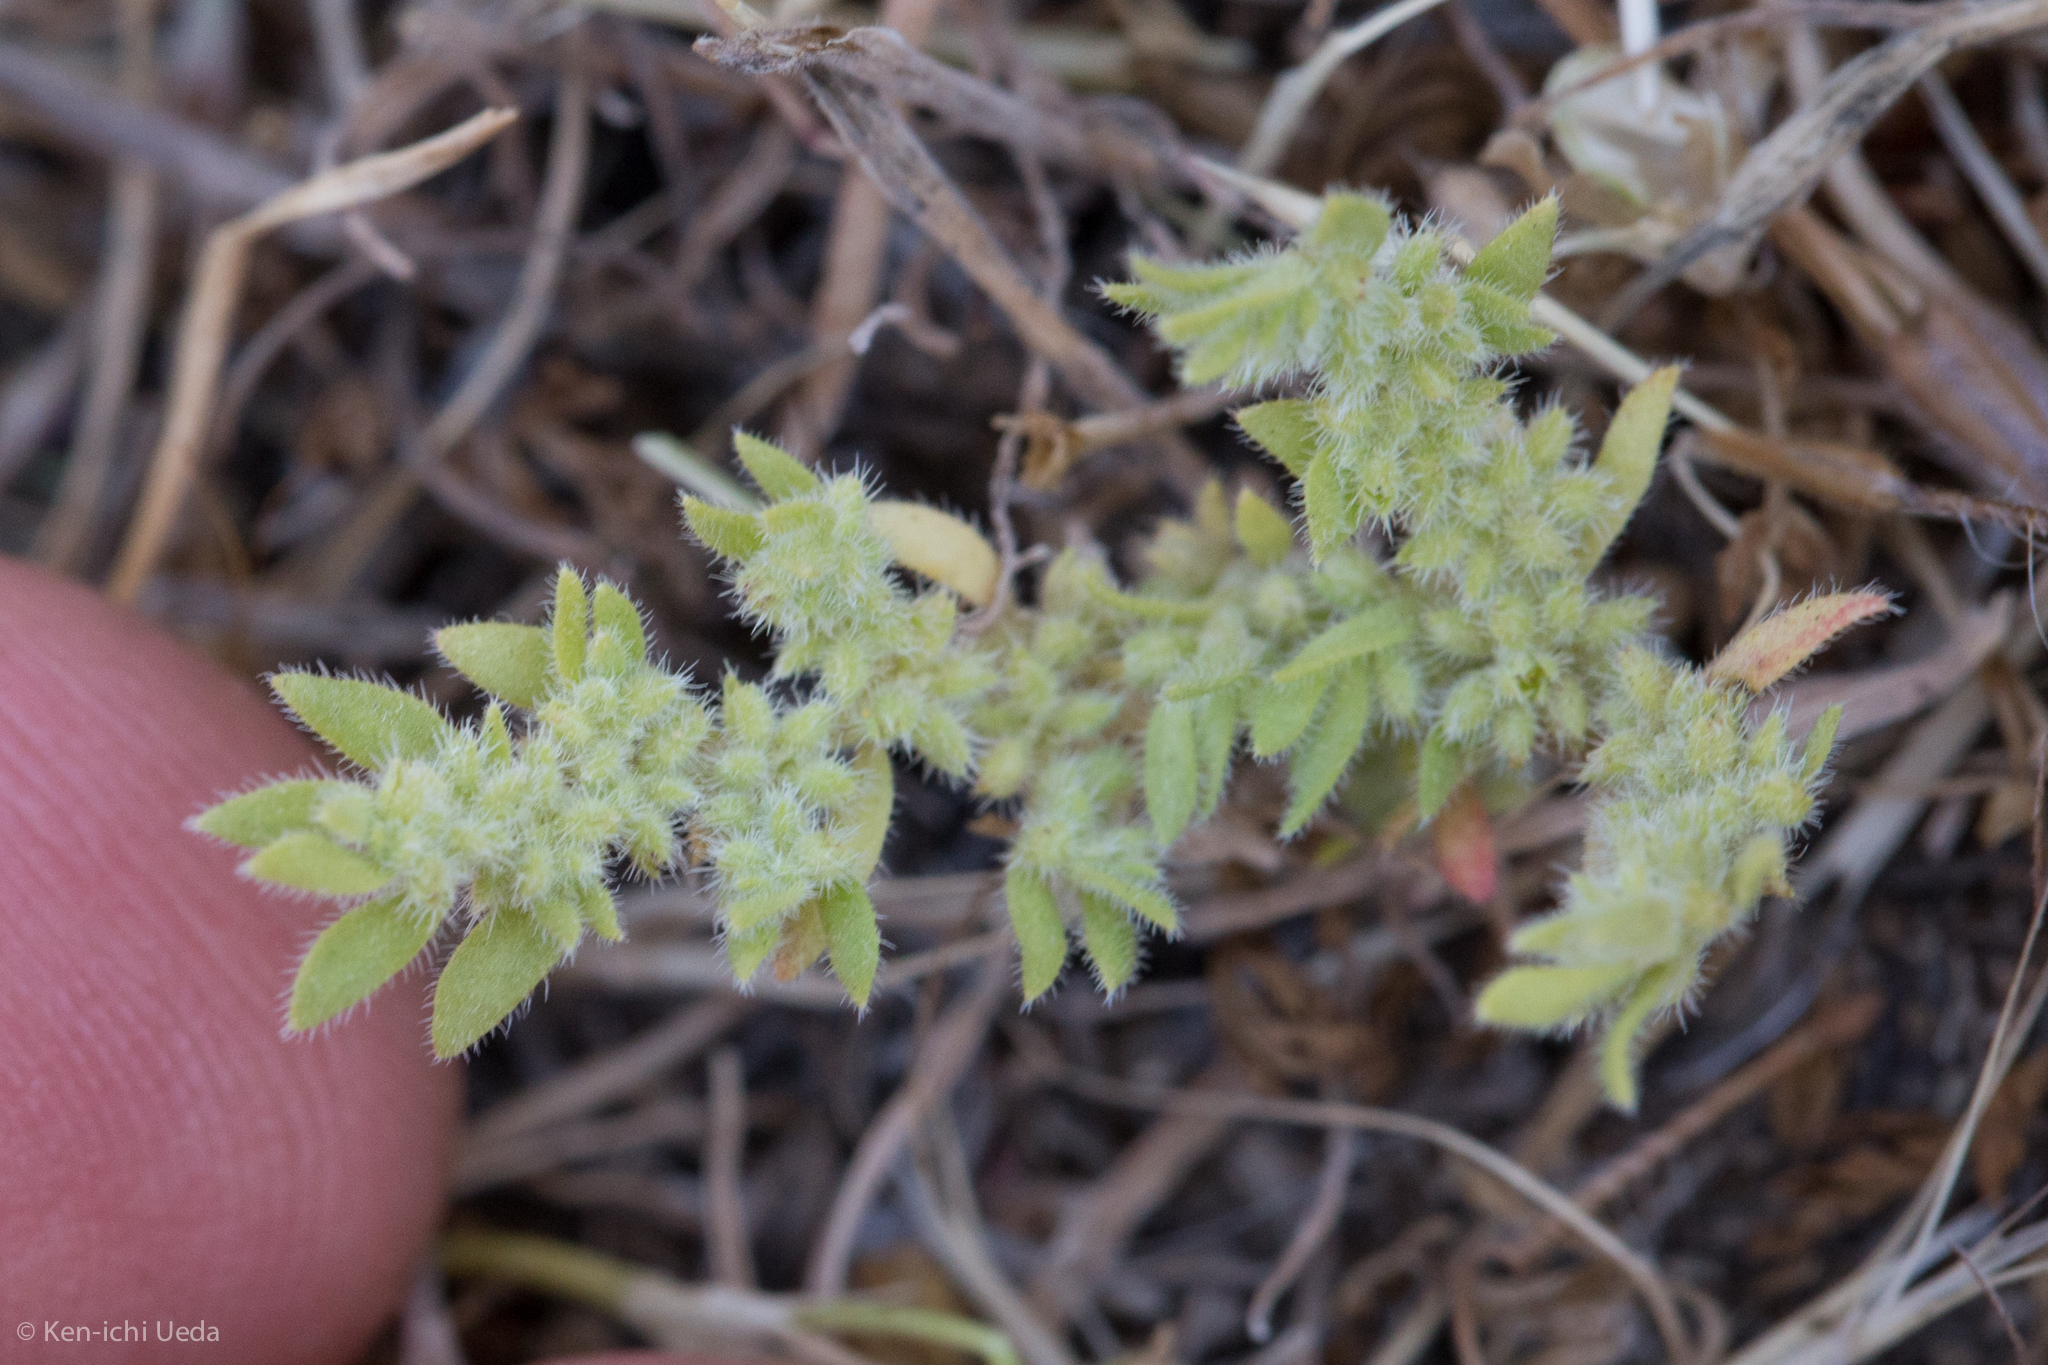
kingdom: Plantae
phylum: Tracheophyta
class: Magnoliopsida
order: Caryophyllales
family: Caryophyllaceae
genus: Herniaria
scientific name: Herniaria hirsuta
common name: Hairy rupturewort
